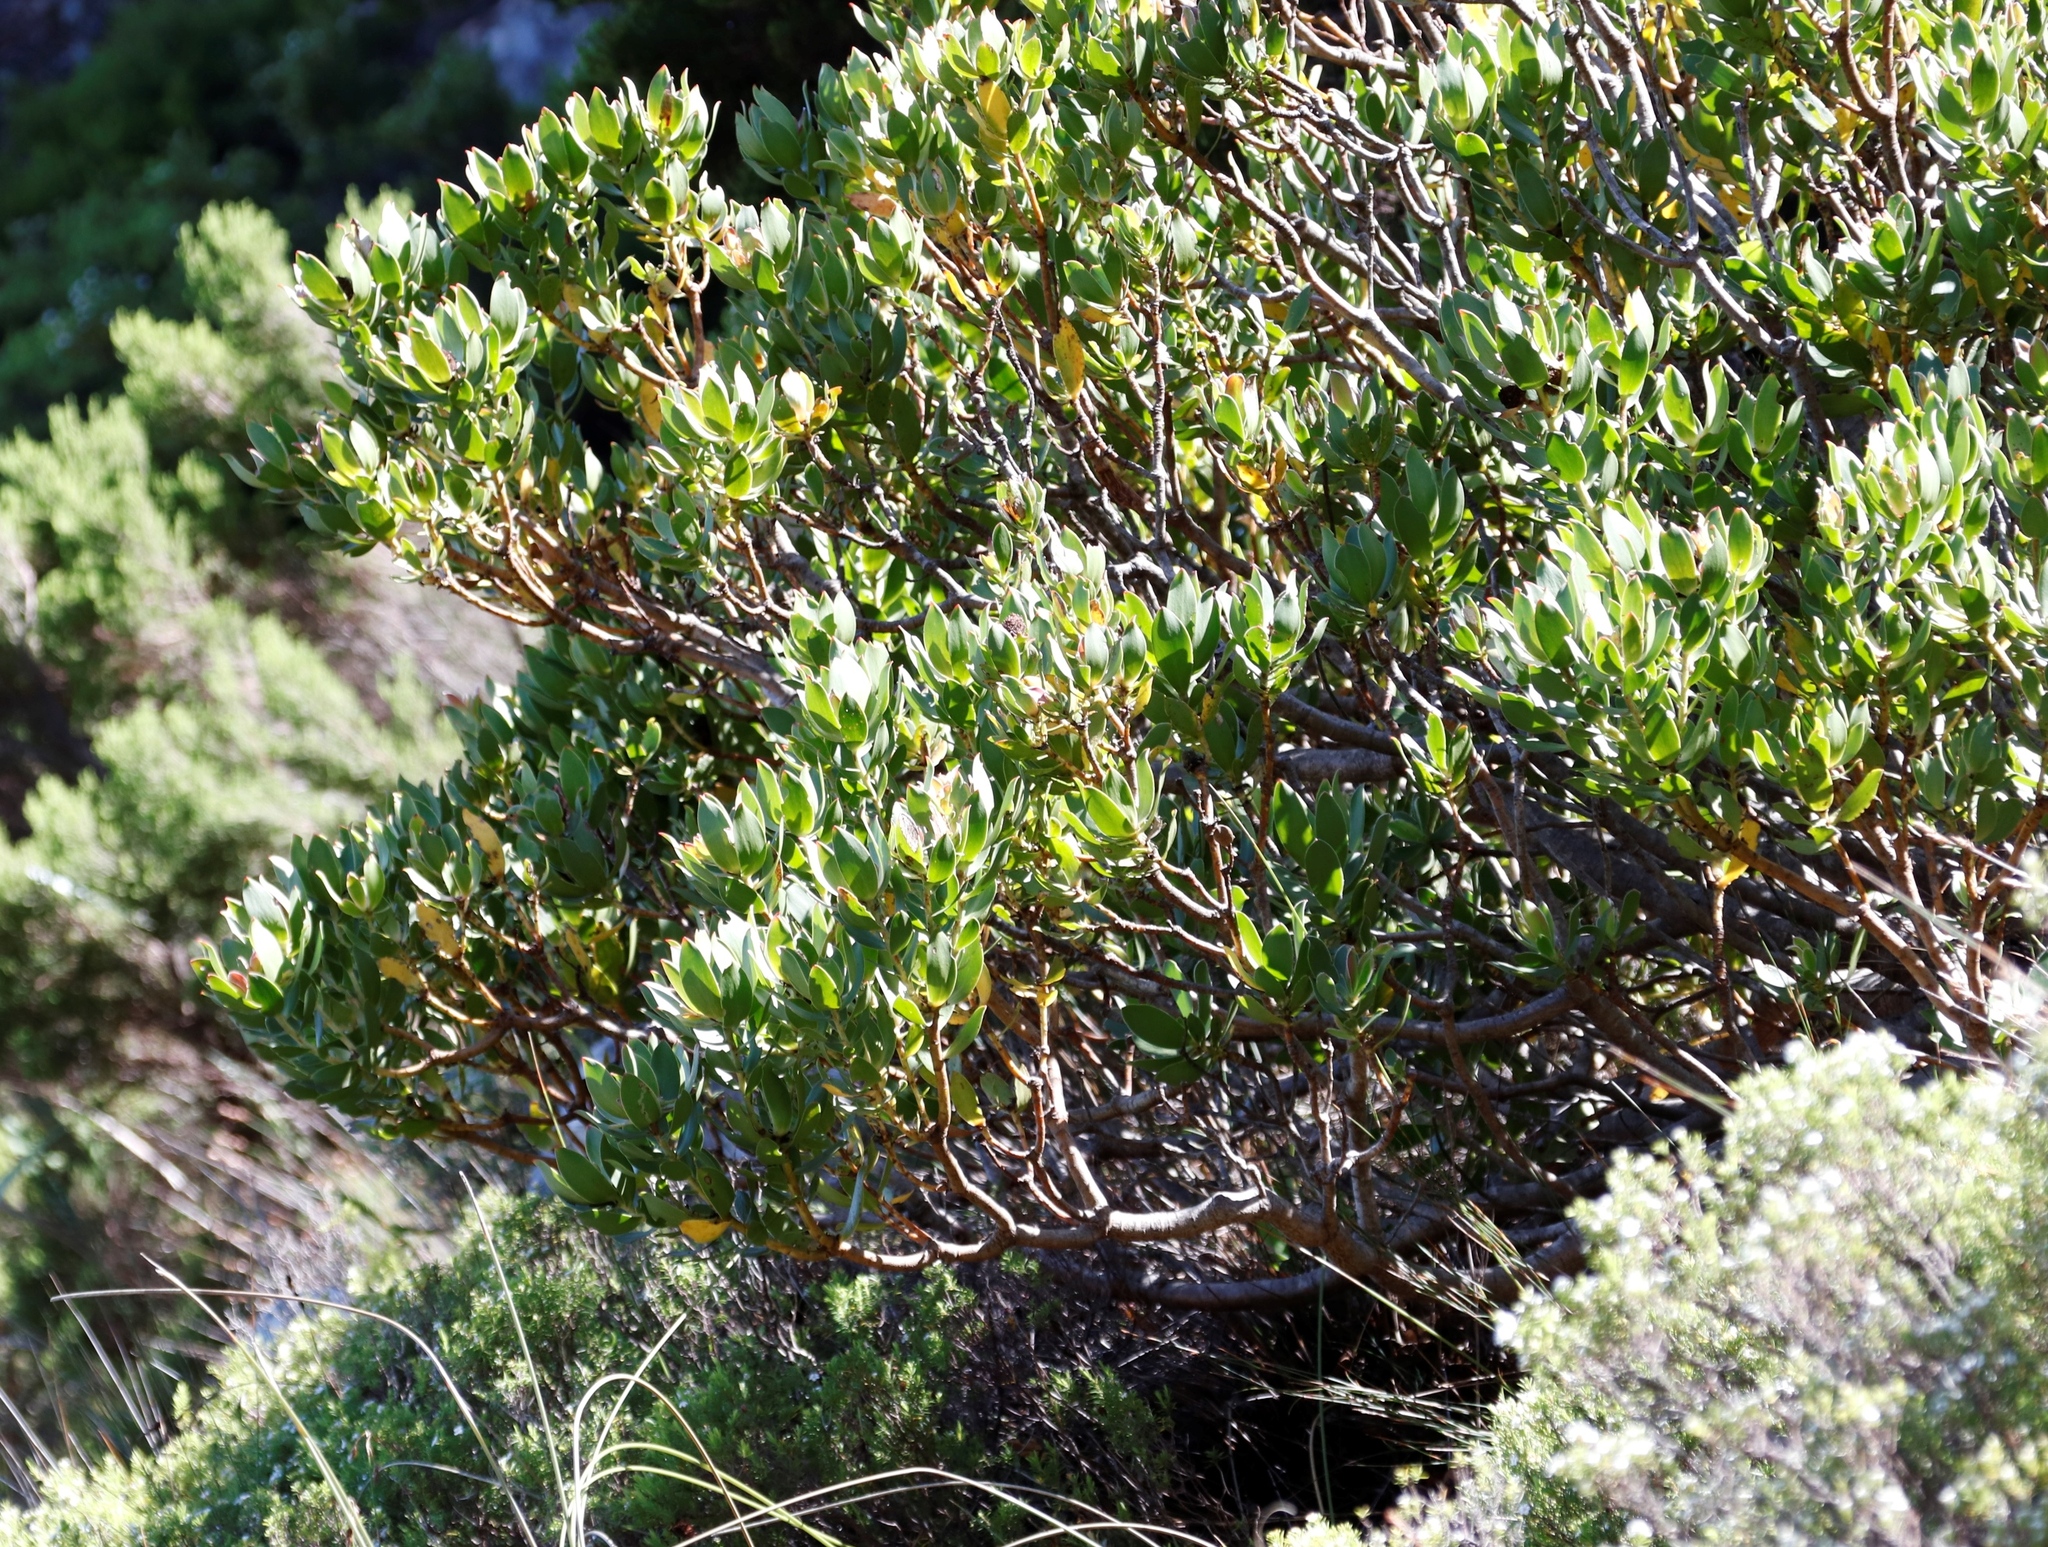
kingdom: Plantae
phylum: Tracheophyta
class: Magnoliopsida
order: Proteales
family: Proteaceae
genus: Leucadendron
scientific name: Leucadendron strobilinum
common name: Mountain rose
